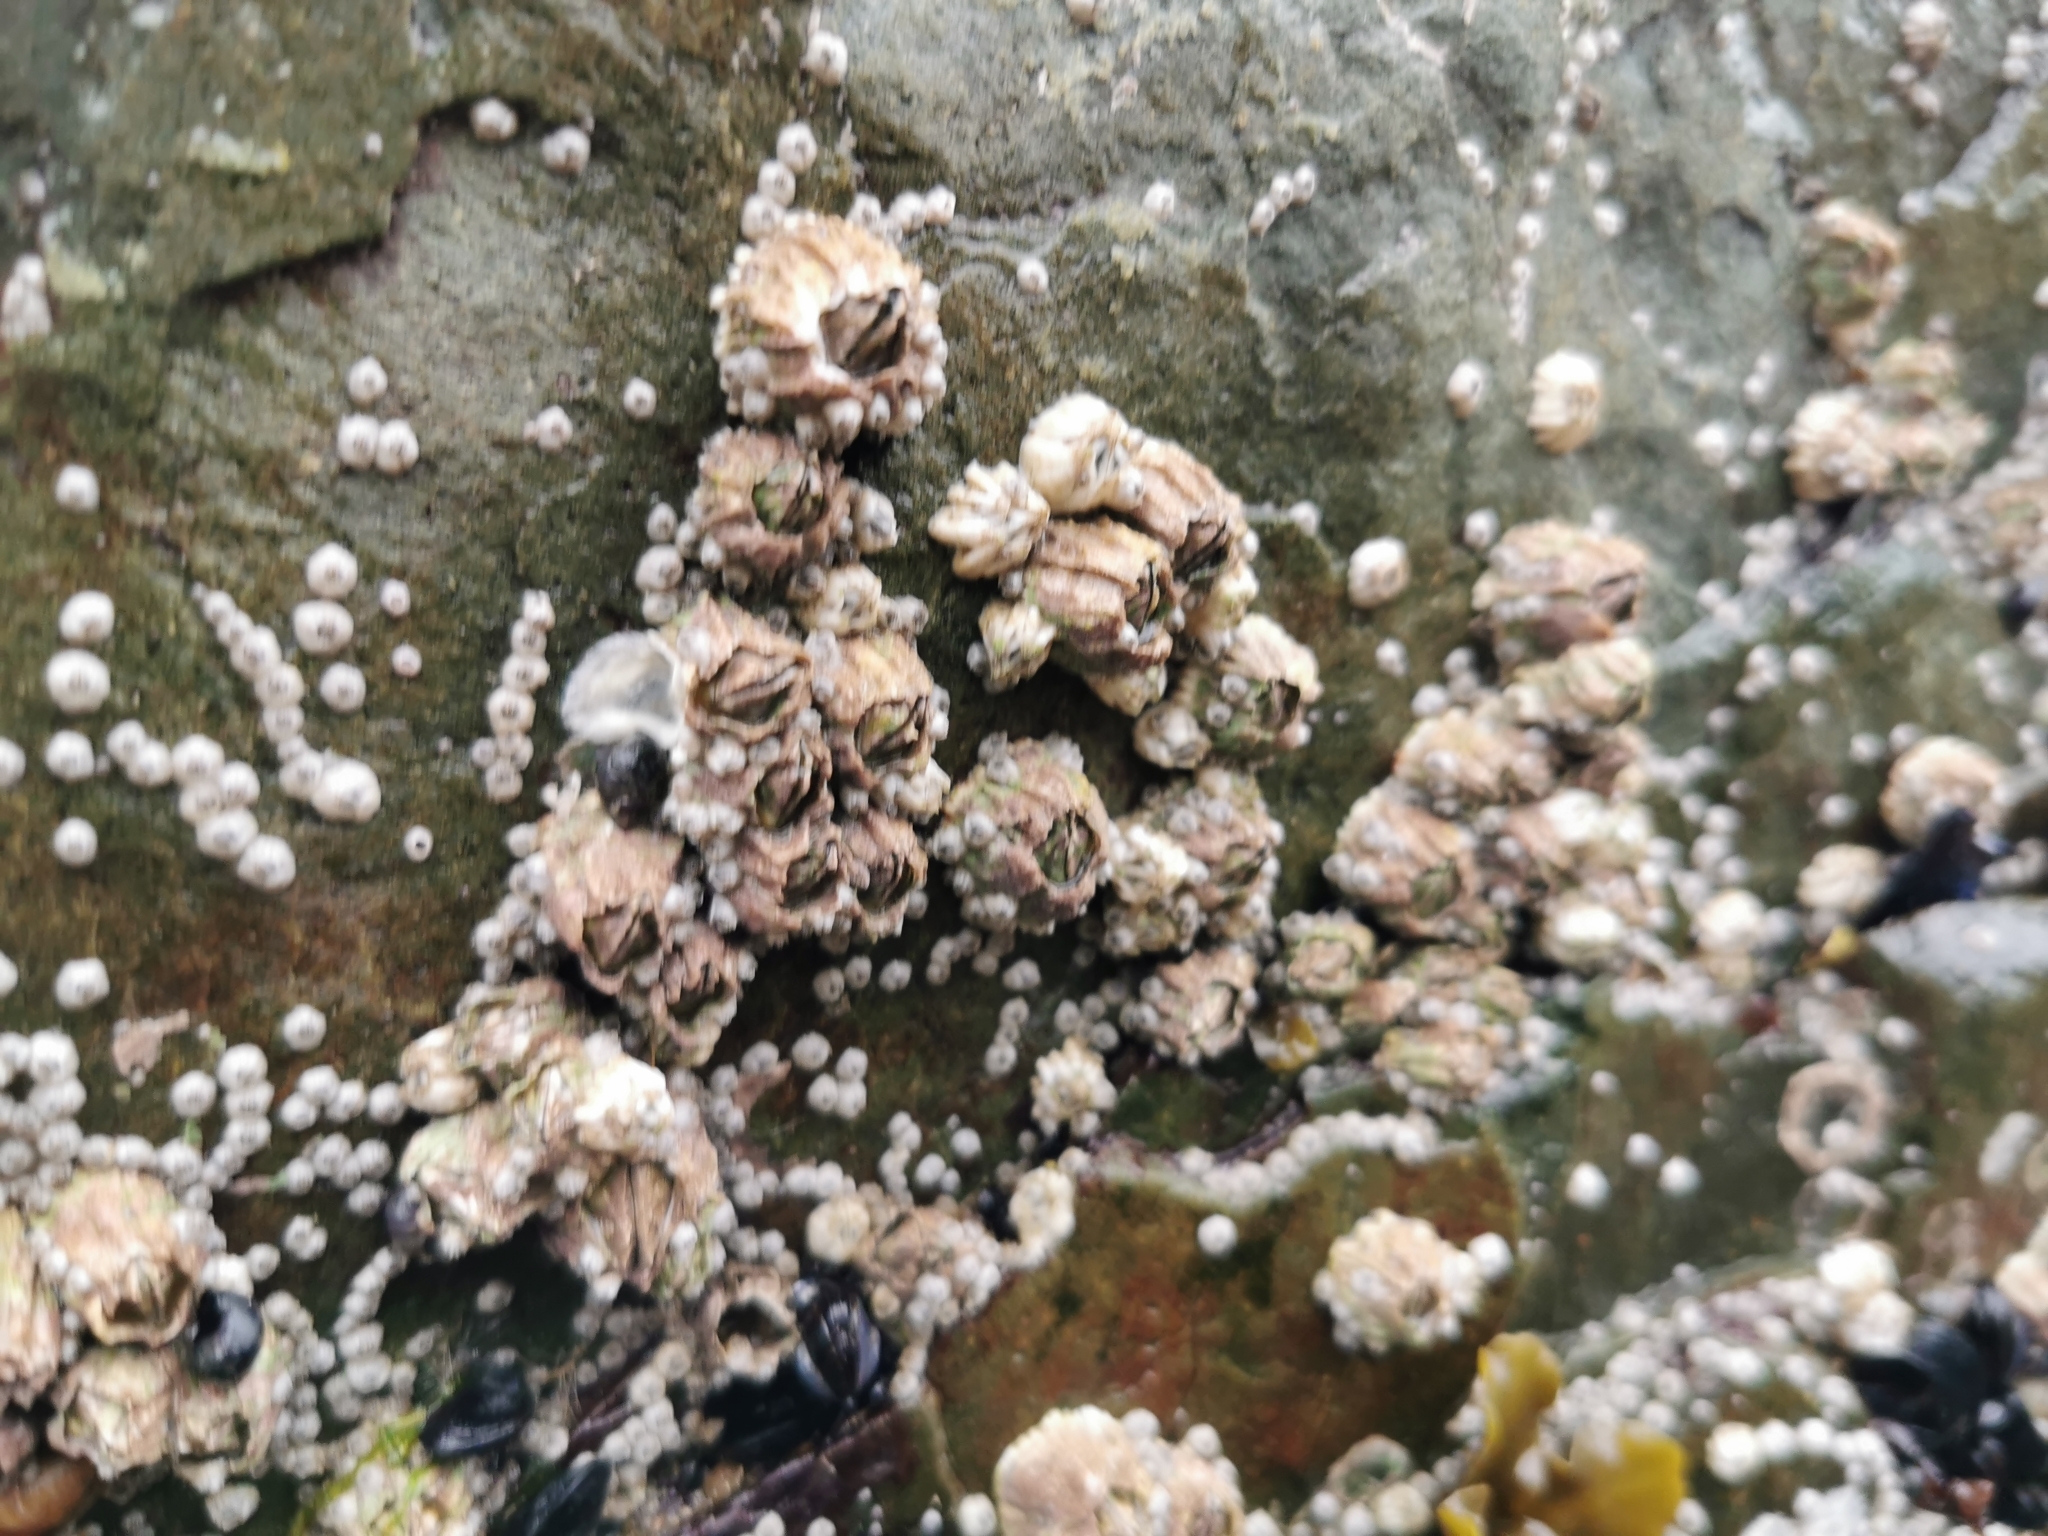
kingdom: Animalia
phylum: Arthropoda
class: Maxillopoda
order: Sessilia
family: Balanidae
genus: Balanus
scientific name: Balanus glandula
